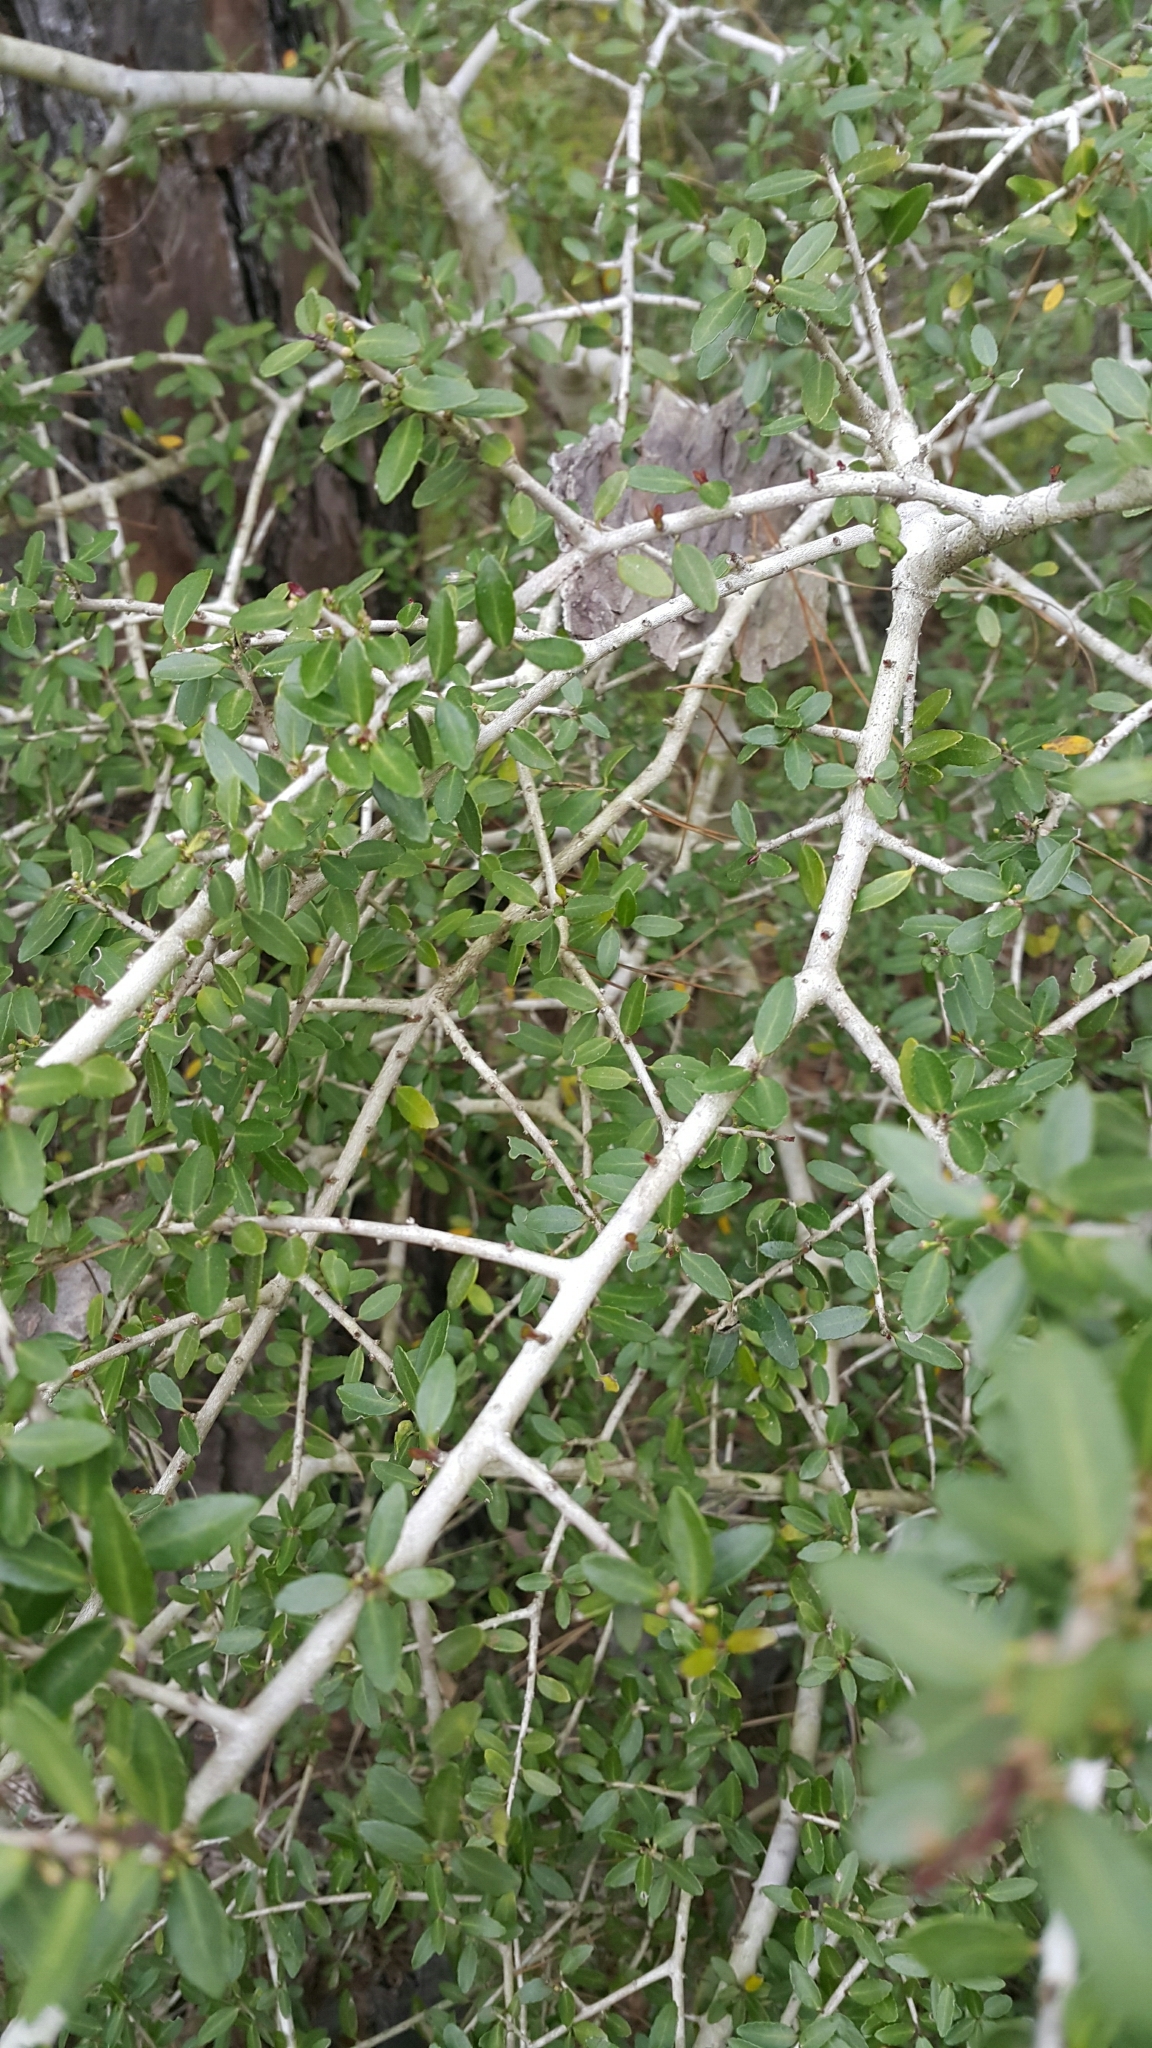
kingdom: Plantae
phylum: Tracheophyta
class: Magnoliopsida
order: Aquifoliales
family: Aquifoliaceae
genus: Ilex
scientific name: Ilex vomitoria
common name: Yaupon holly
